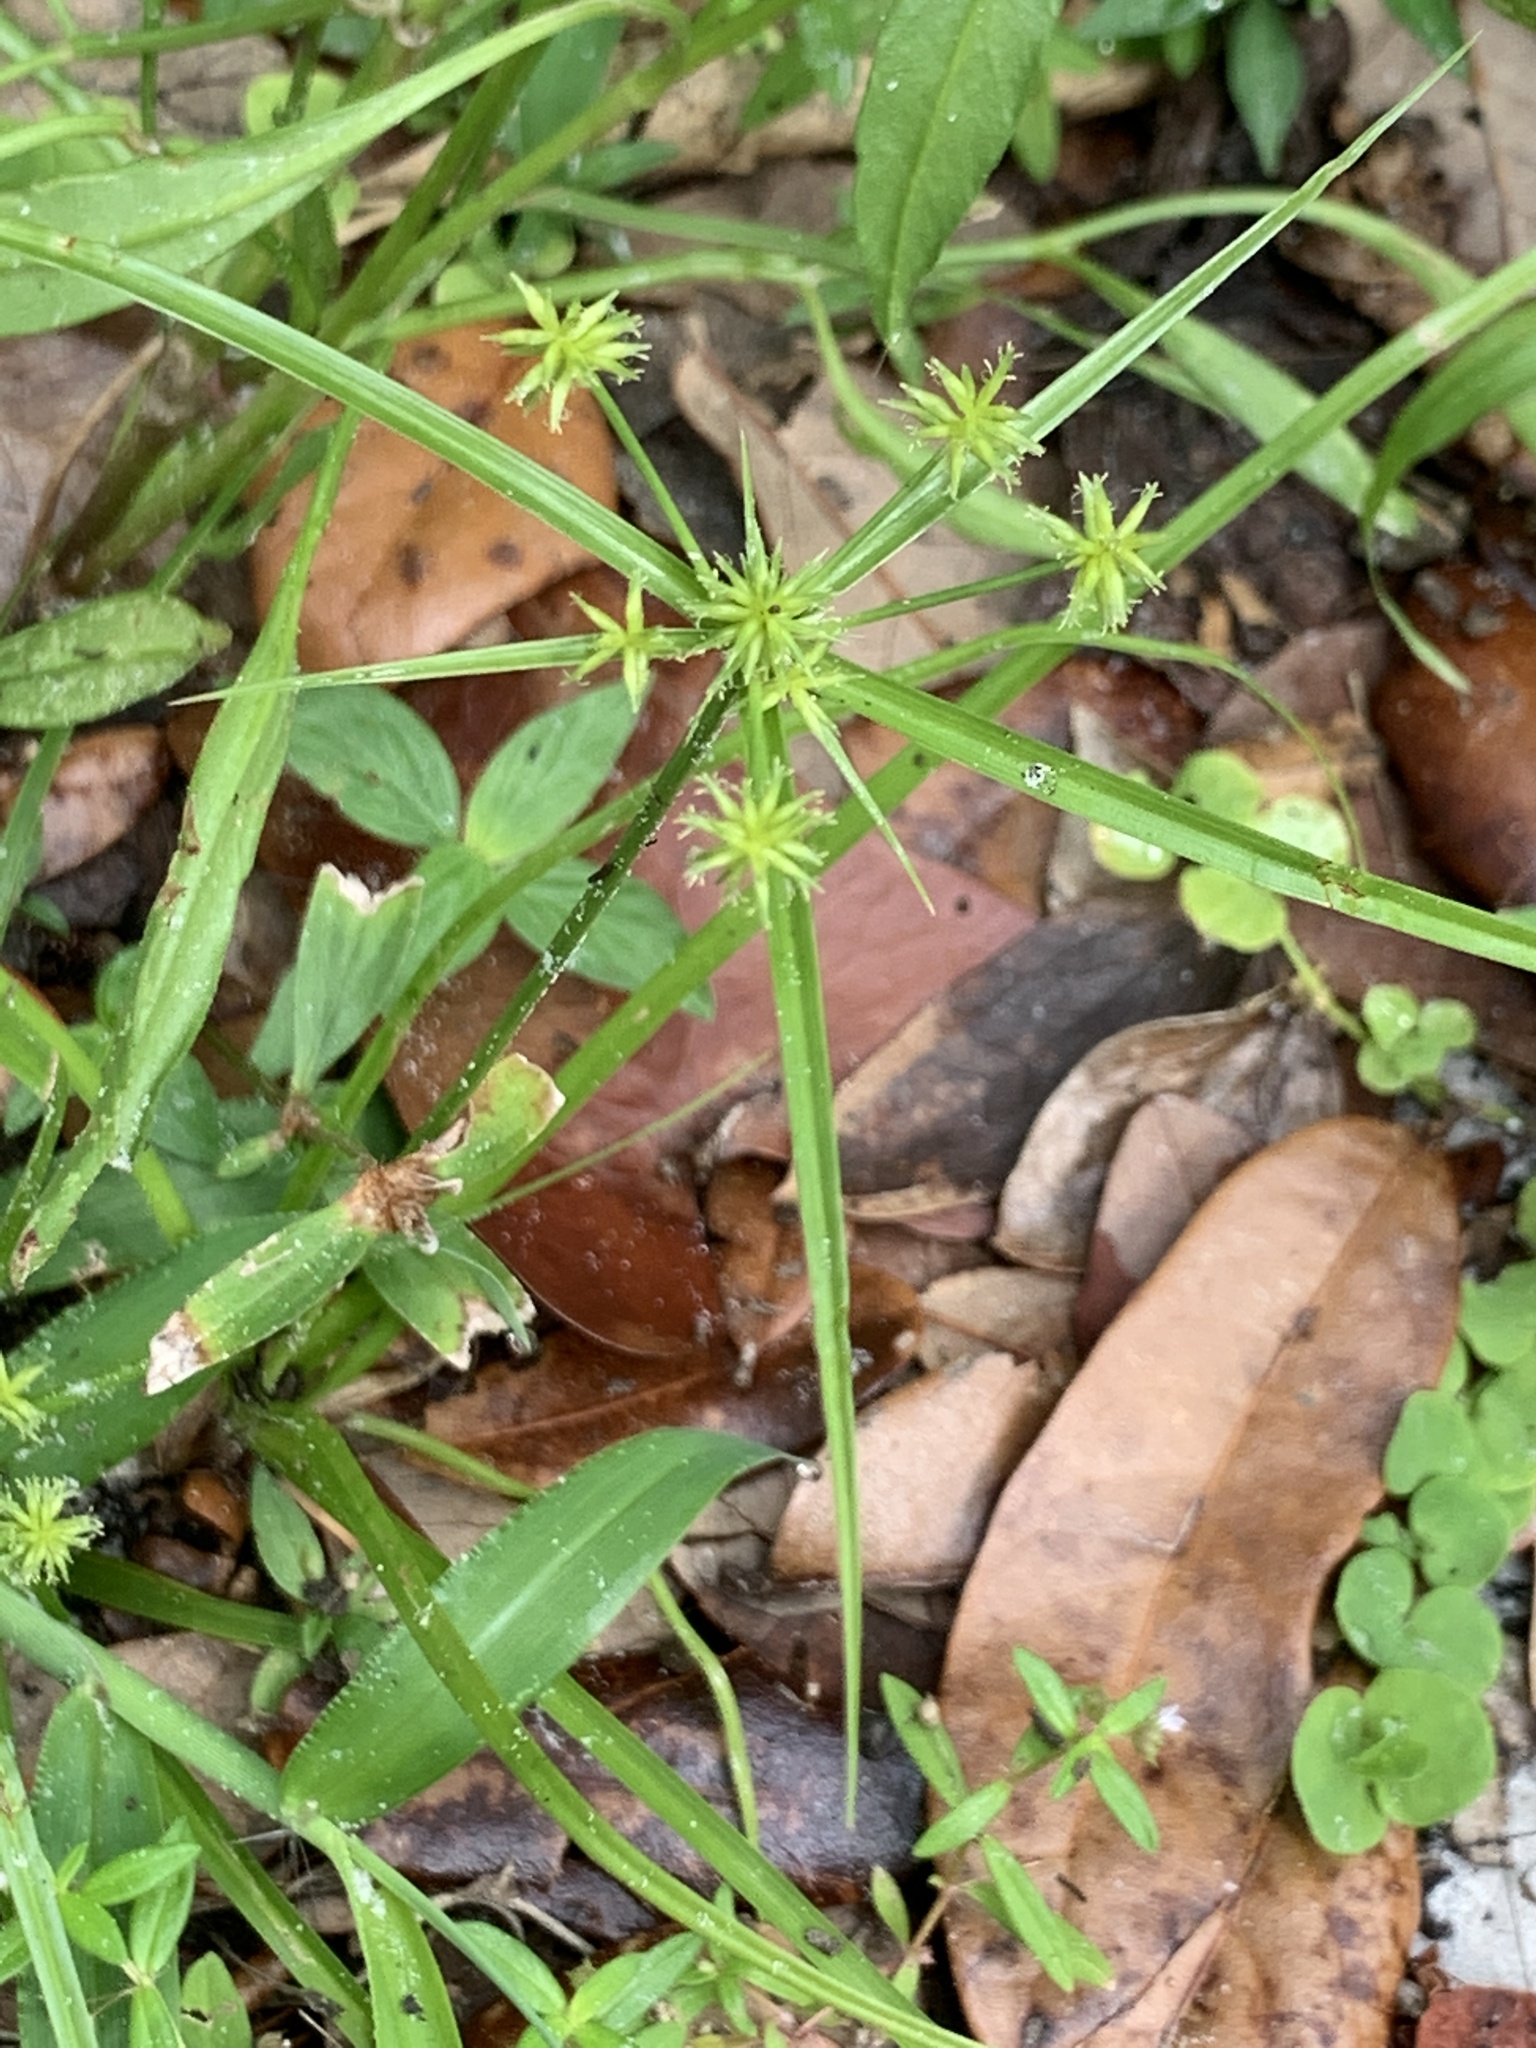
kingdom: Plantae
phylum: Tracheophyta
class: Liliopsida
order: Poales
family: Cyperaceae
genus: Cyperus
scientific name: Cyperus croceus
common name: Baldwin's flatsedge
